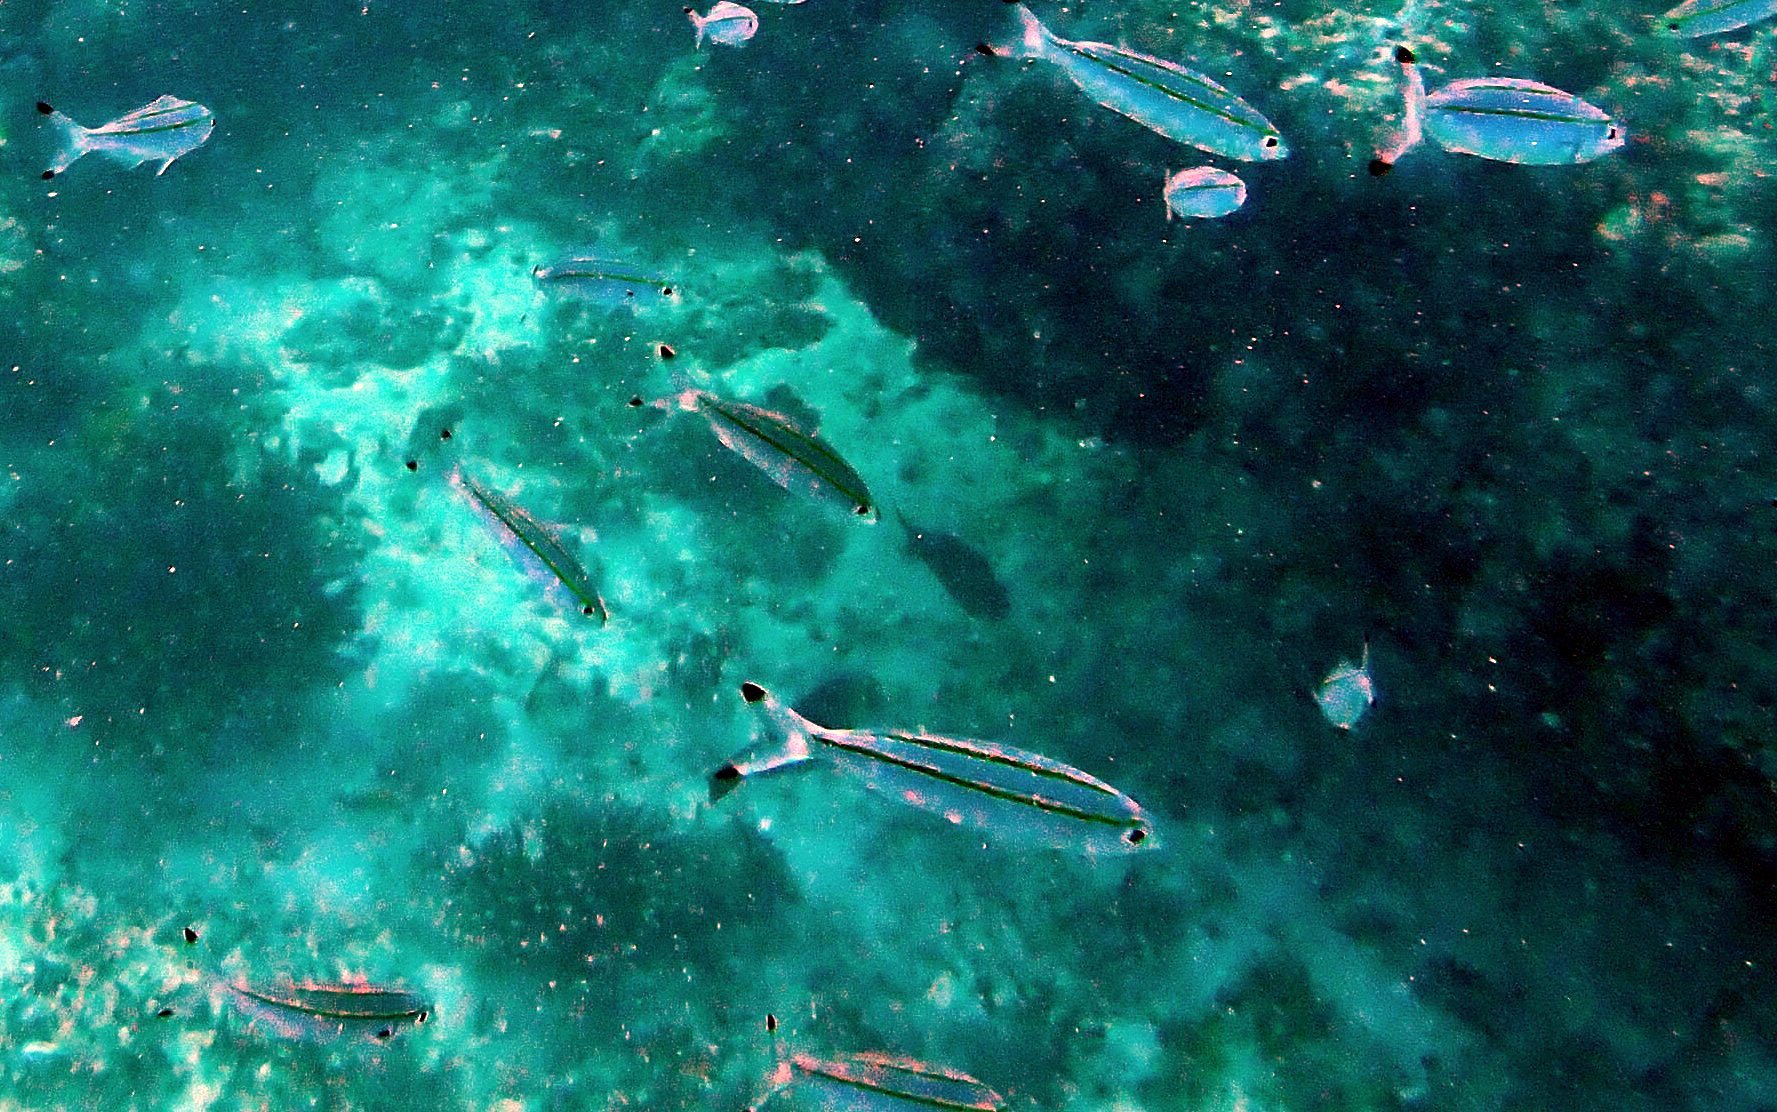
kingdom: Animalia
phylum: Chordata
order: Perciformes
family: Caesionidae
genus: Pterocaesio
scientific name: Pterocaesio marri
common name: Marr's fusilier
